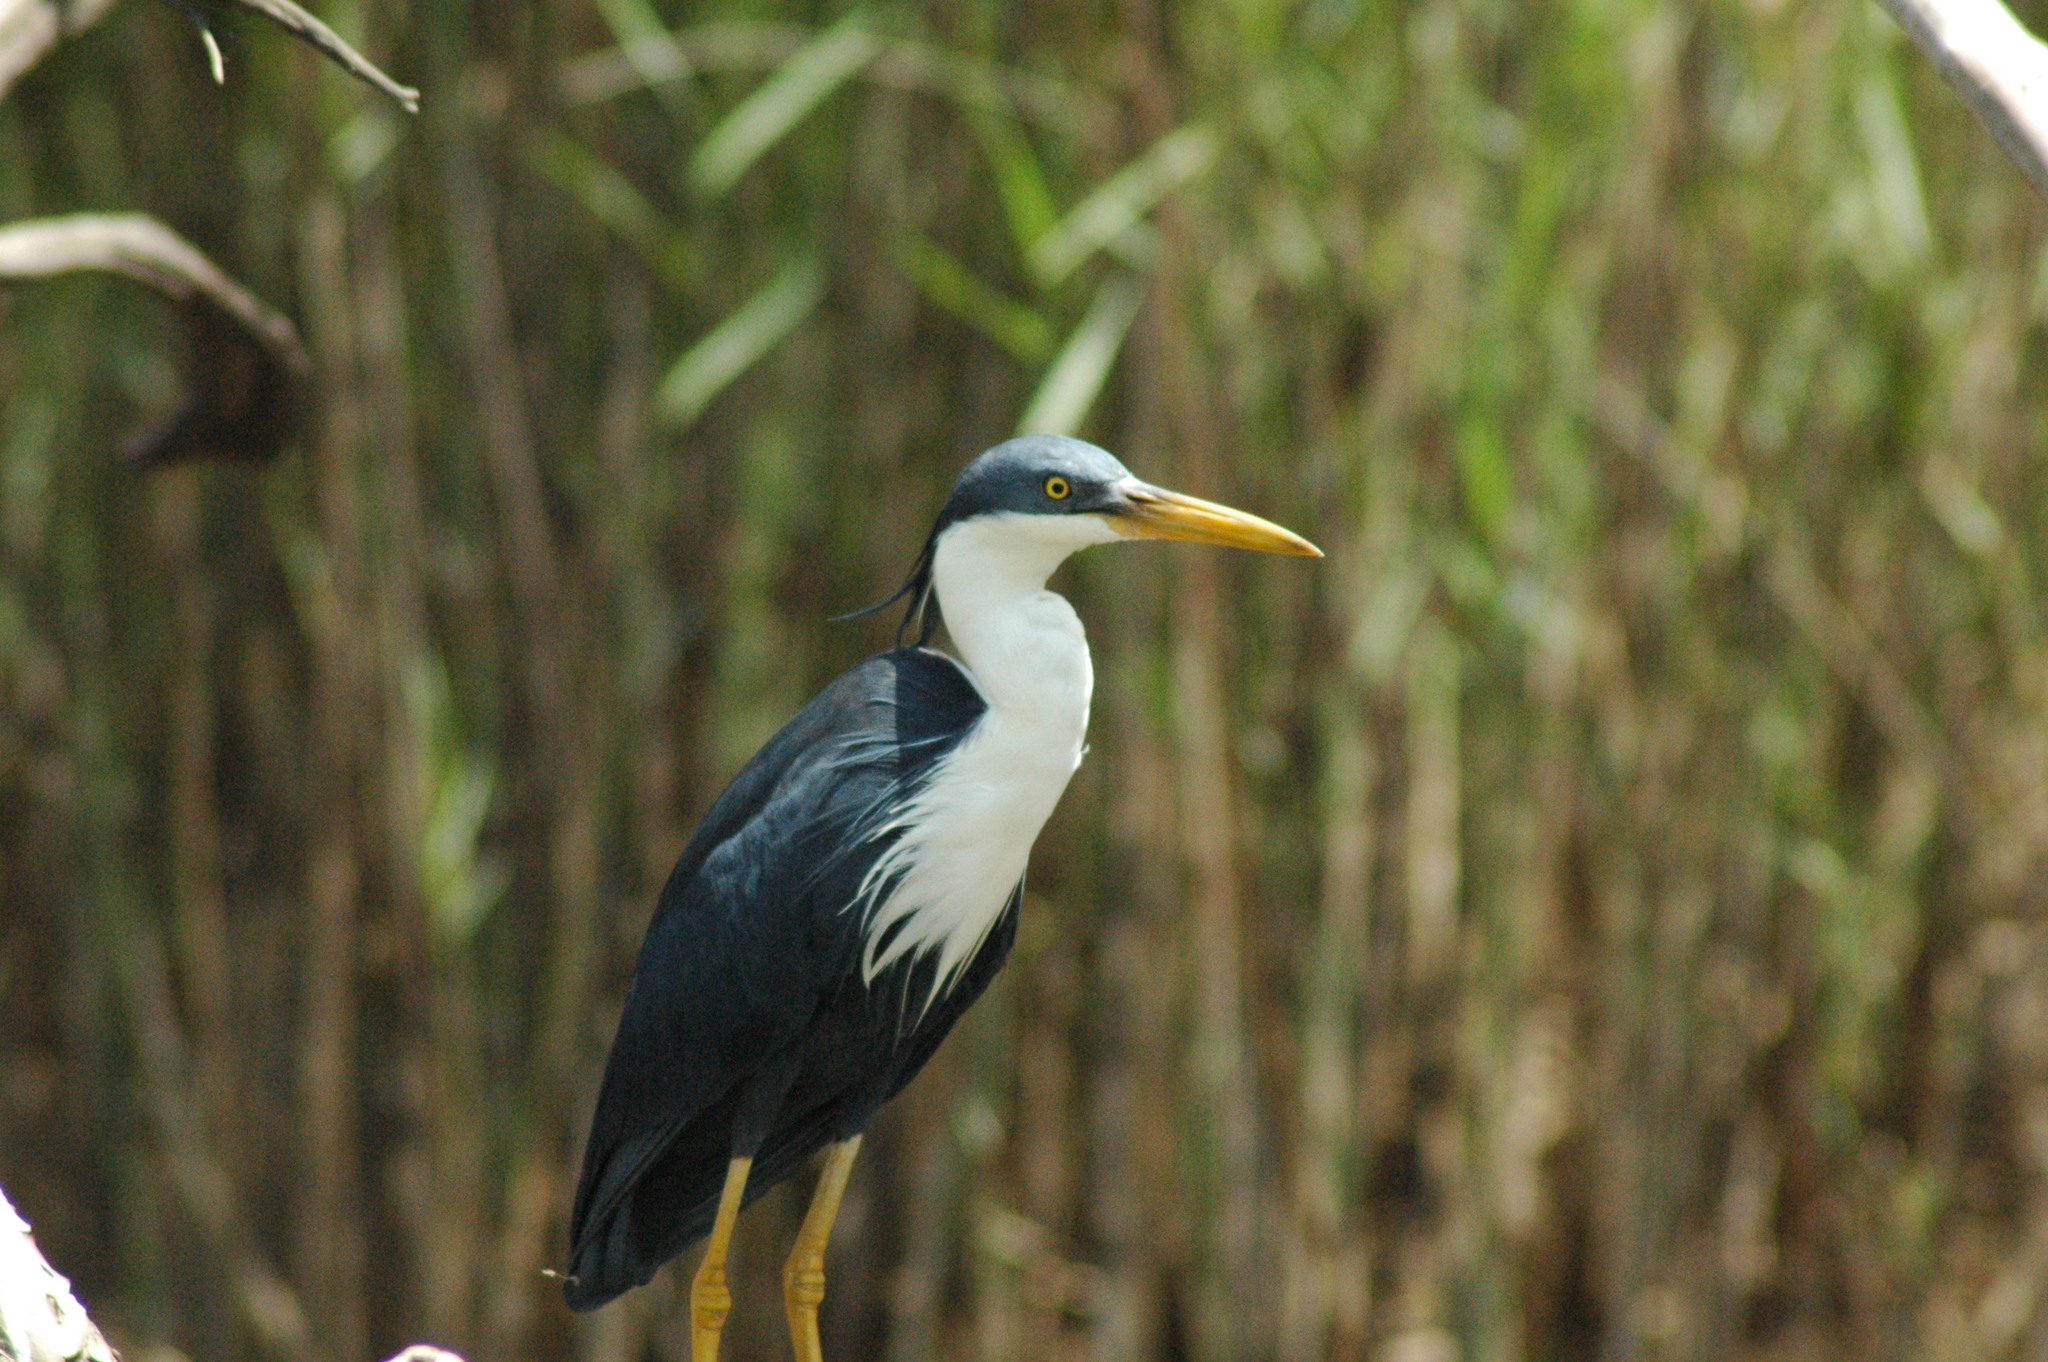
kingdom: Animalia
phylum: Chordata
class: Aves
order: Pelecaniformes
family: Ardeidae
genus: Egretta
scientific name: Egretta picata
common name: Pied heron
